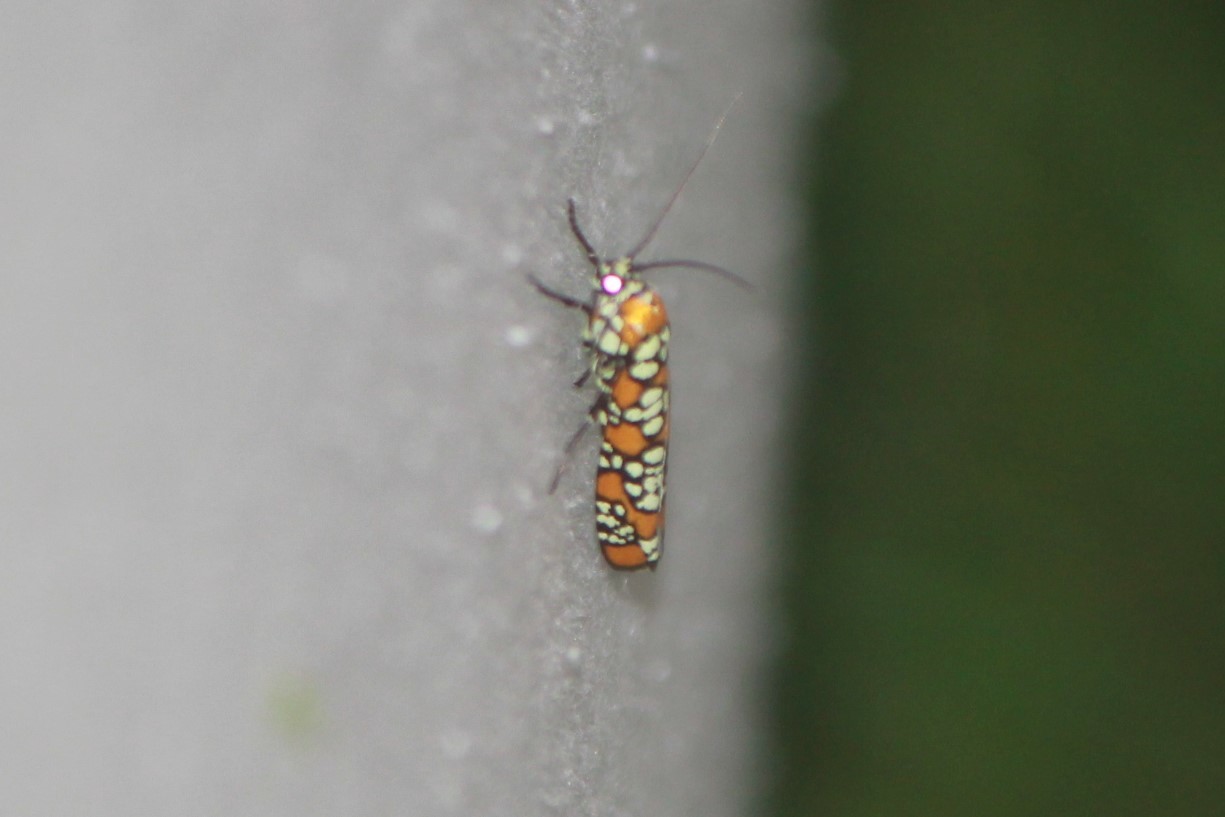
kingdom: Animalia
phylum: Arthropoda
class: Insecta
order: Lepidoptera
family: Attevidae
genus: Atteva
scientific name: Atteva punctella
